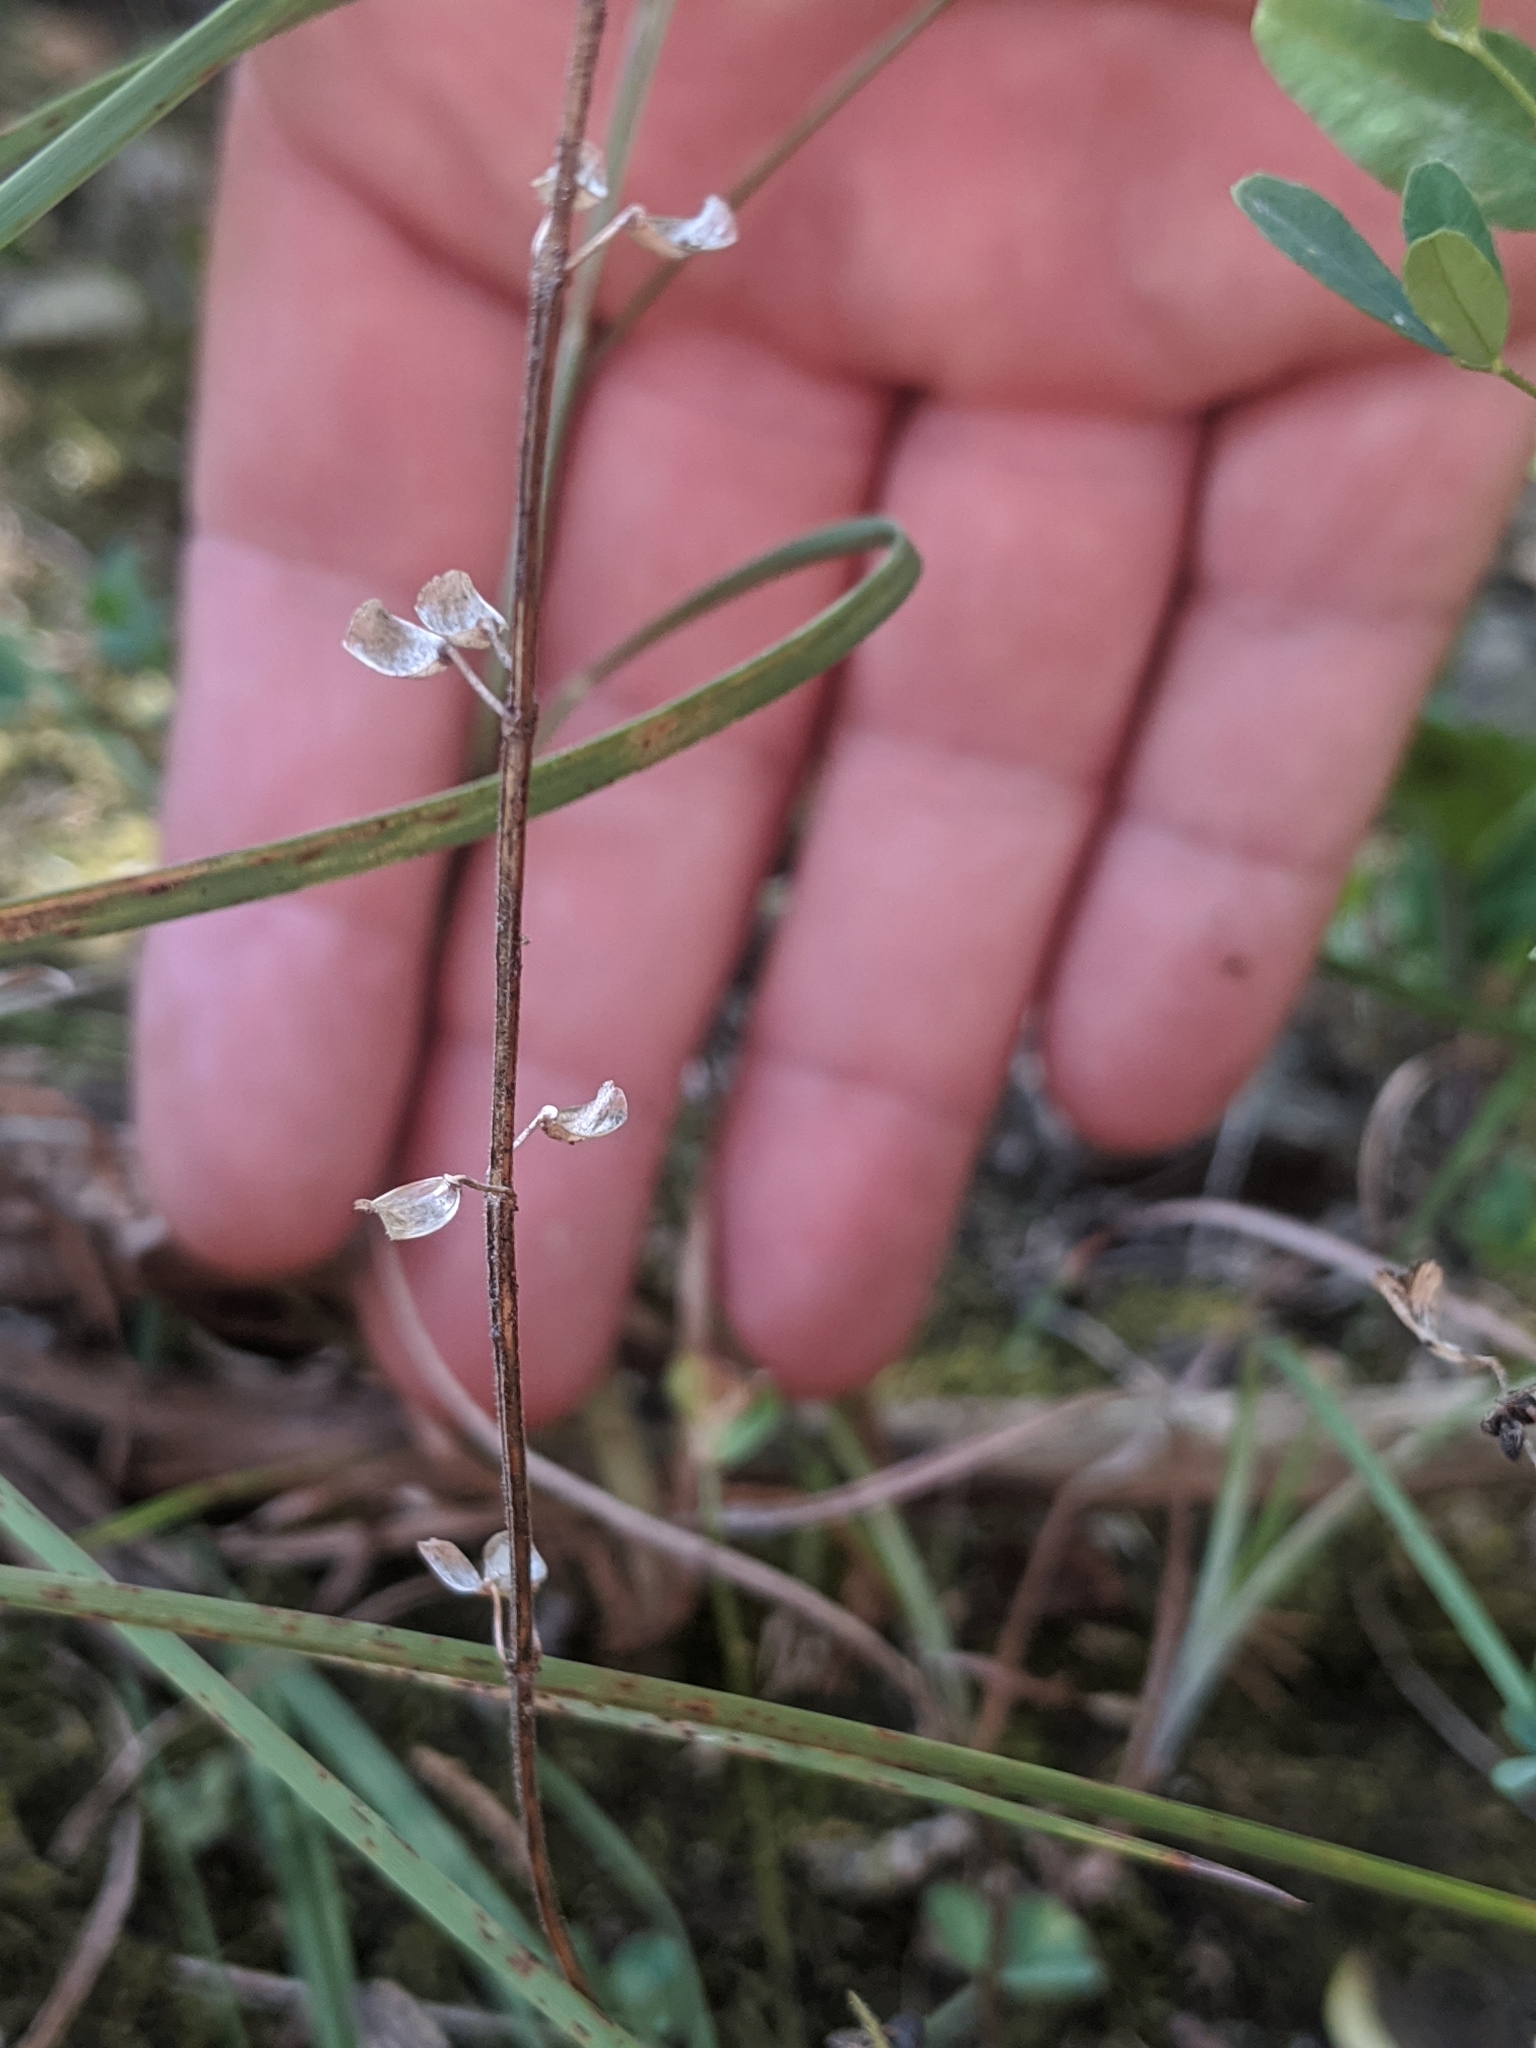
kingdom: Plantae
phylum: Tracheophyta
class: Magnoliopsida
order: Lamiales
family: Lamiaceae
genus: Scutellaria
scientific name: Scutellaria parvula
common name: Little scullcap
